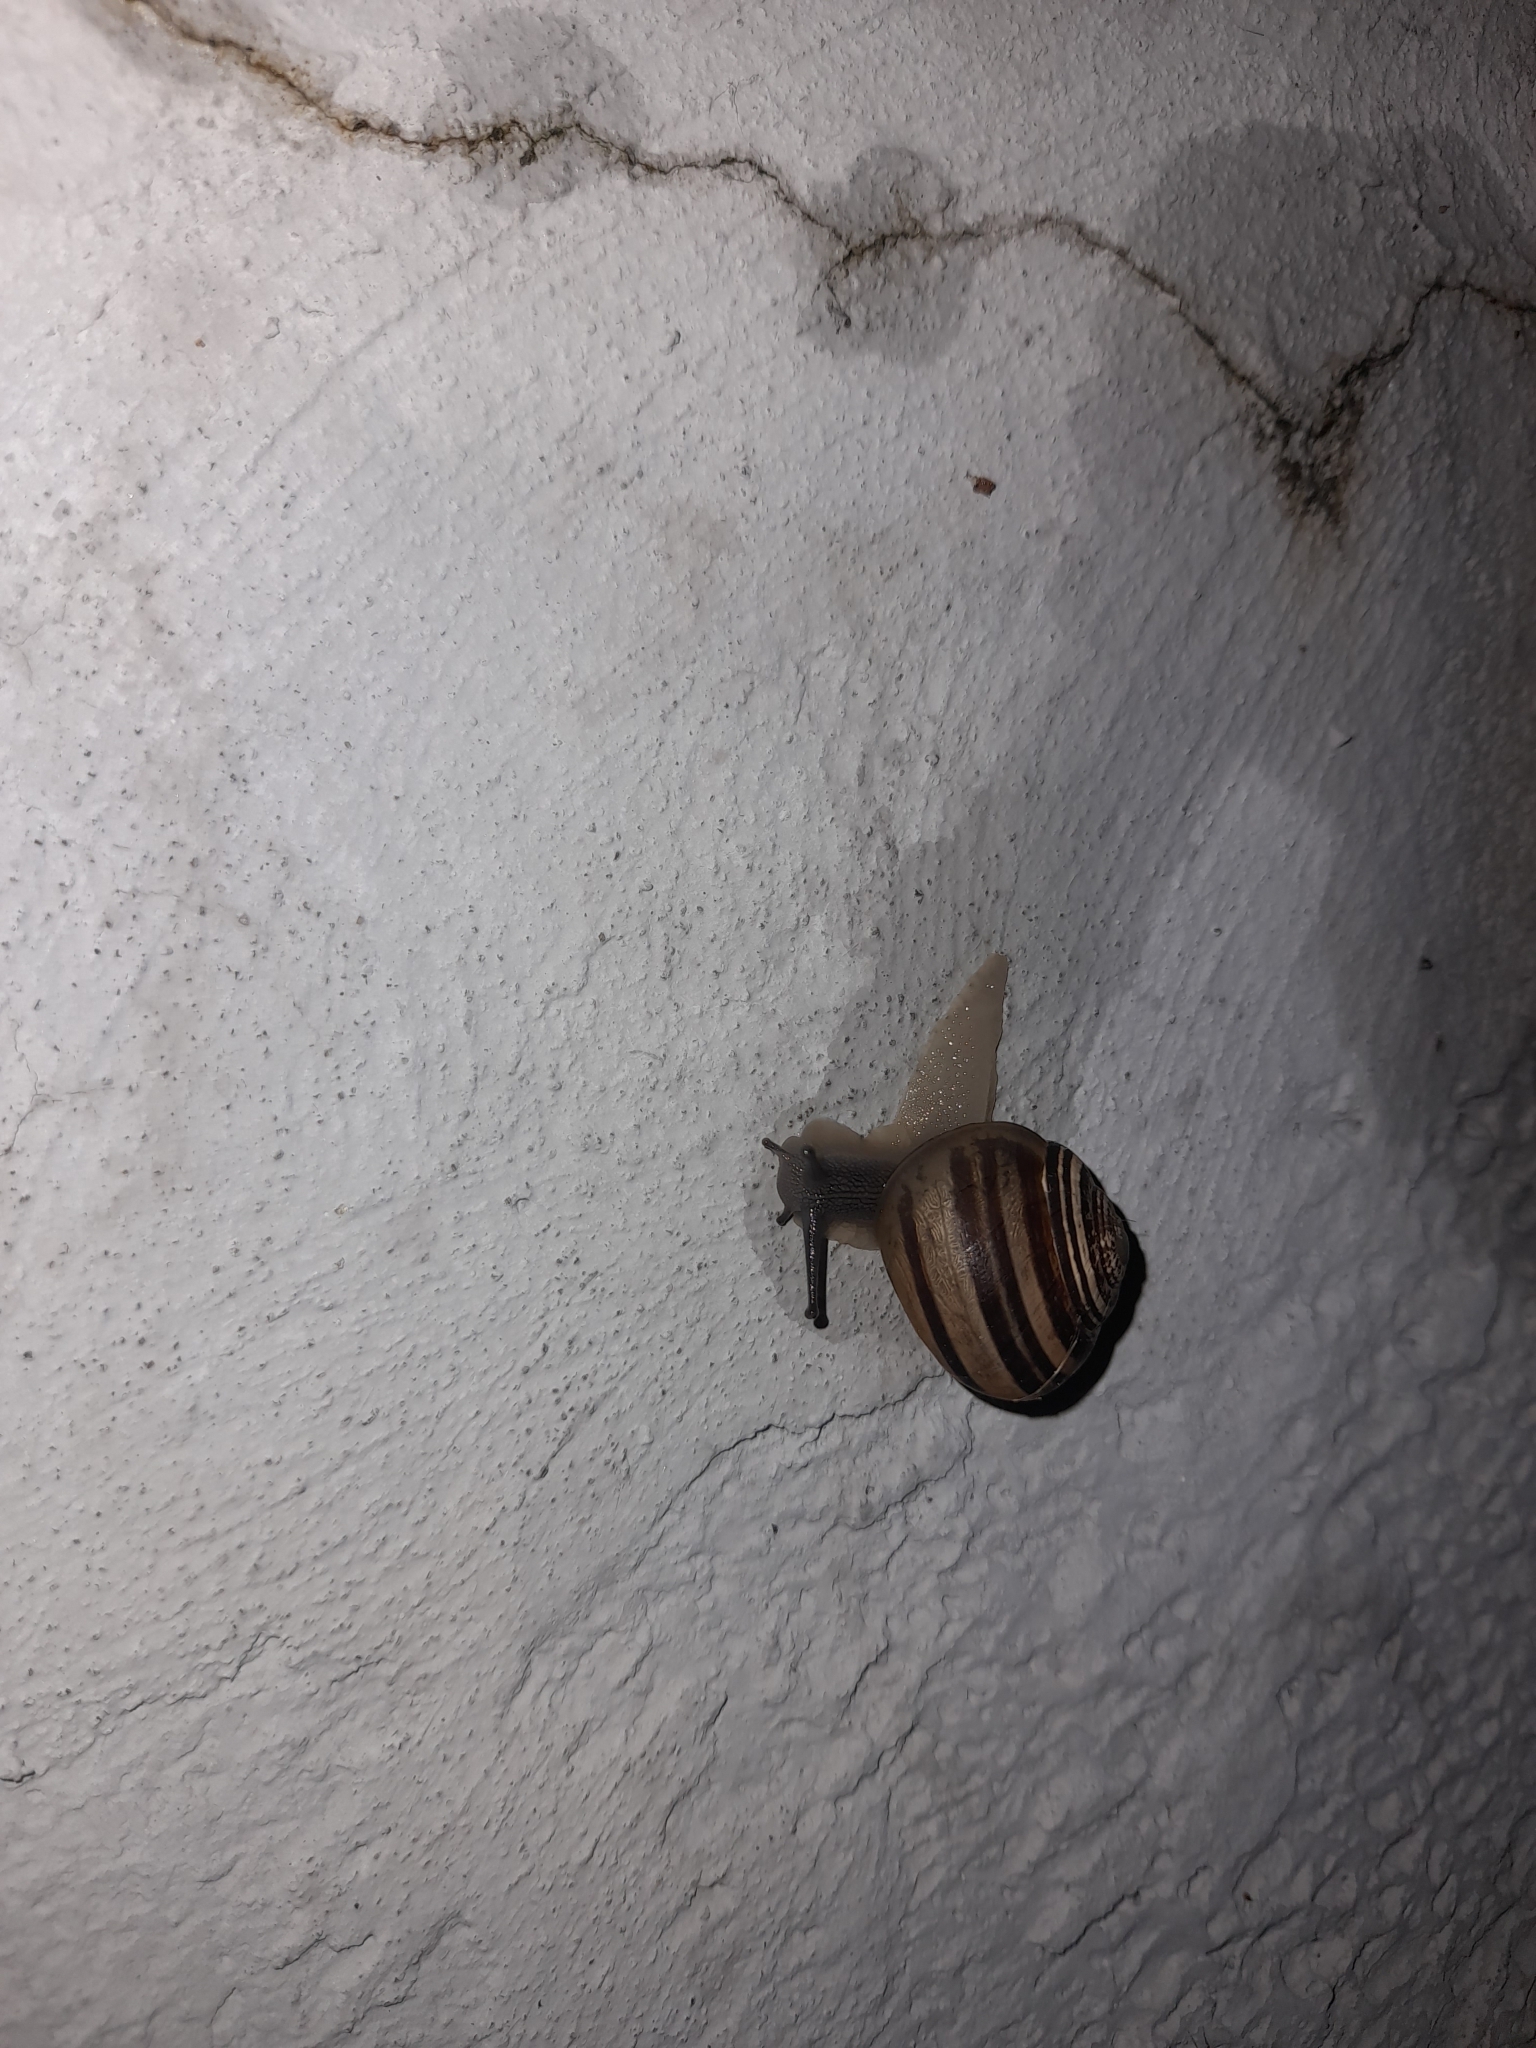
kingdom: Animalia
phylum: Mollusca
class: Gastropoda
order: Stylommatophora
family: Helicidae
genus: Eobania
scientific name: Eobania vermiculata
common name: Chocolateband snail
